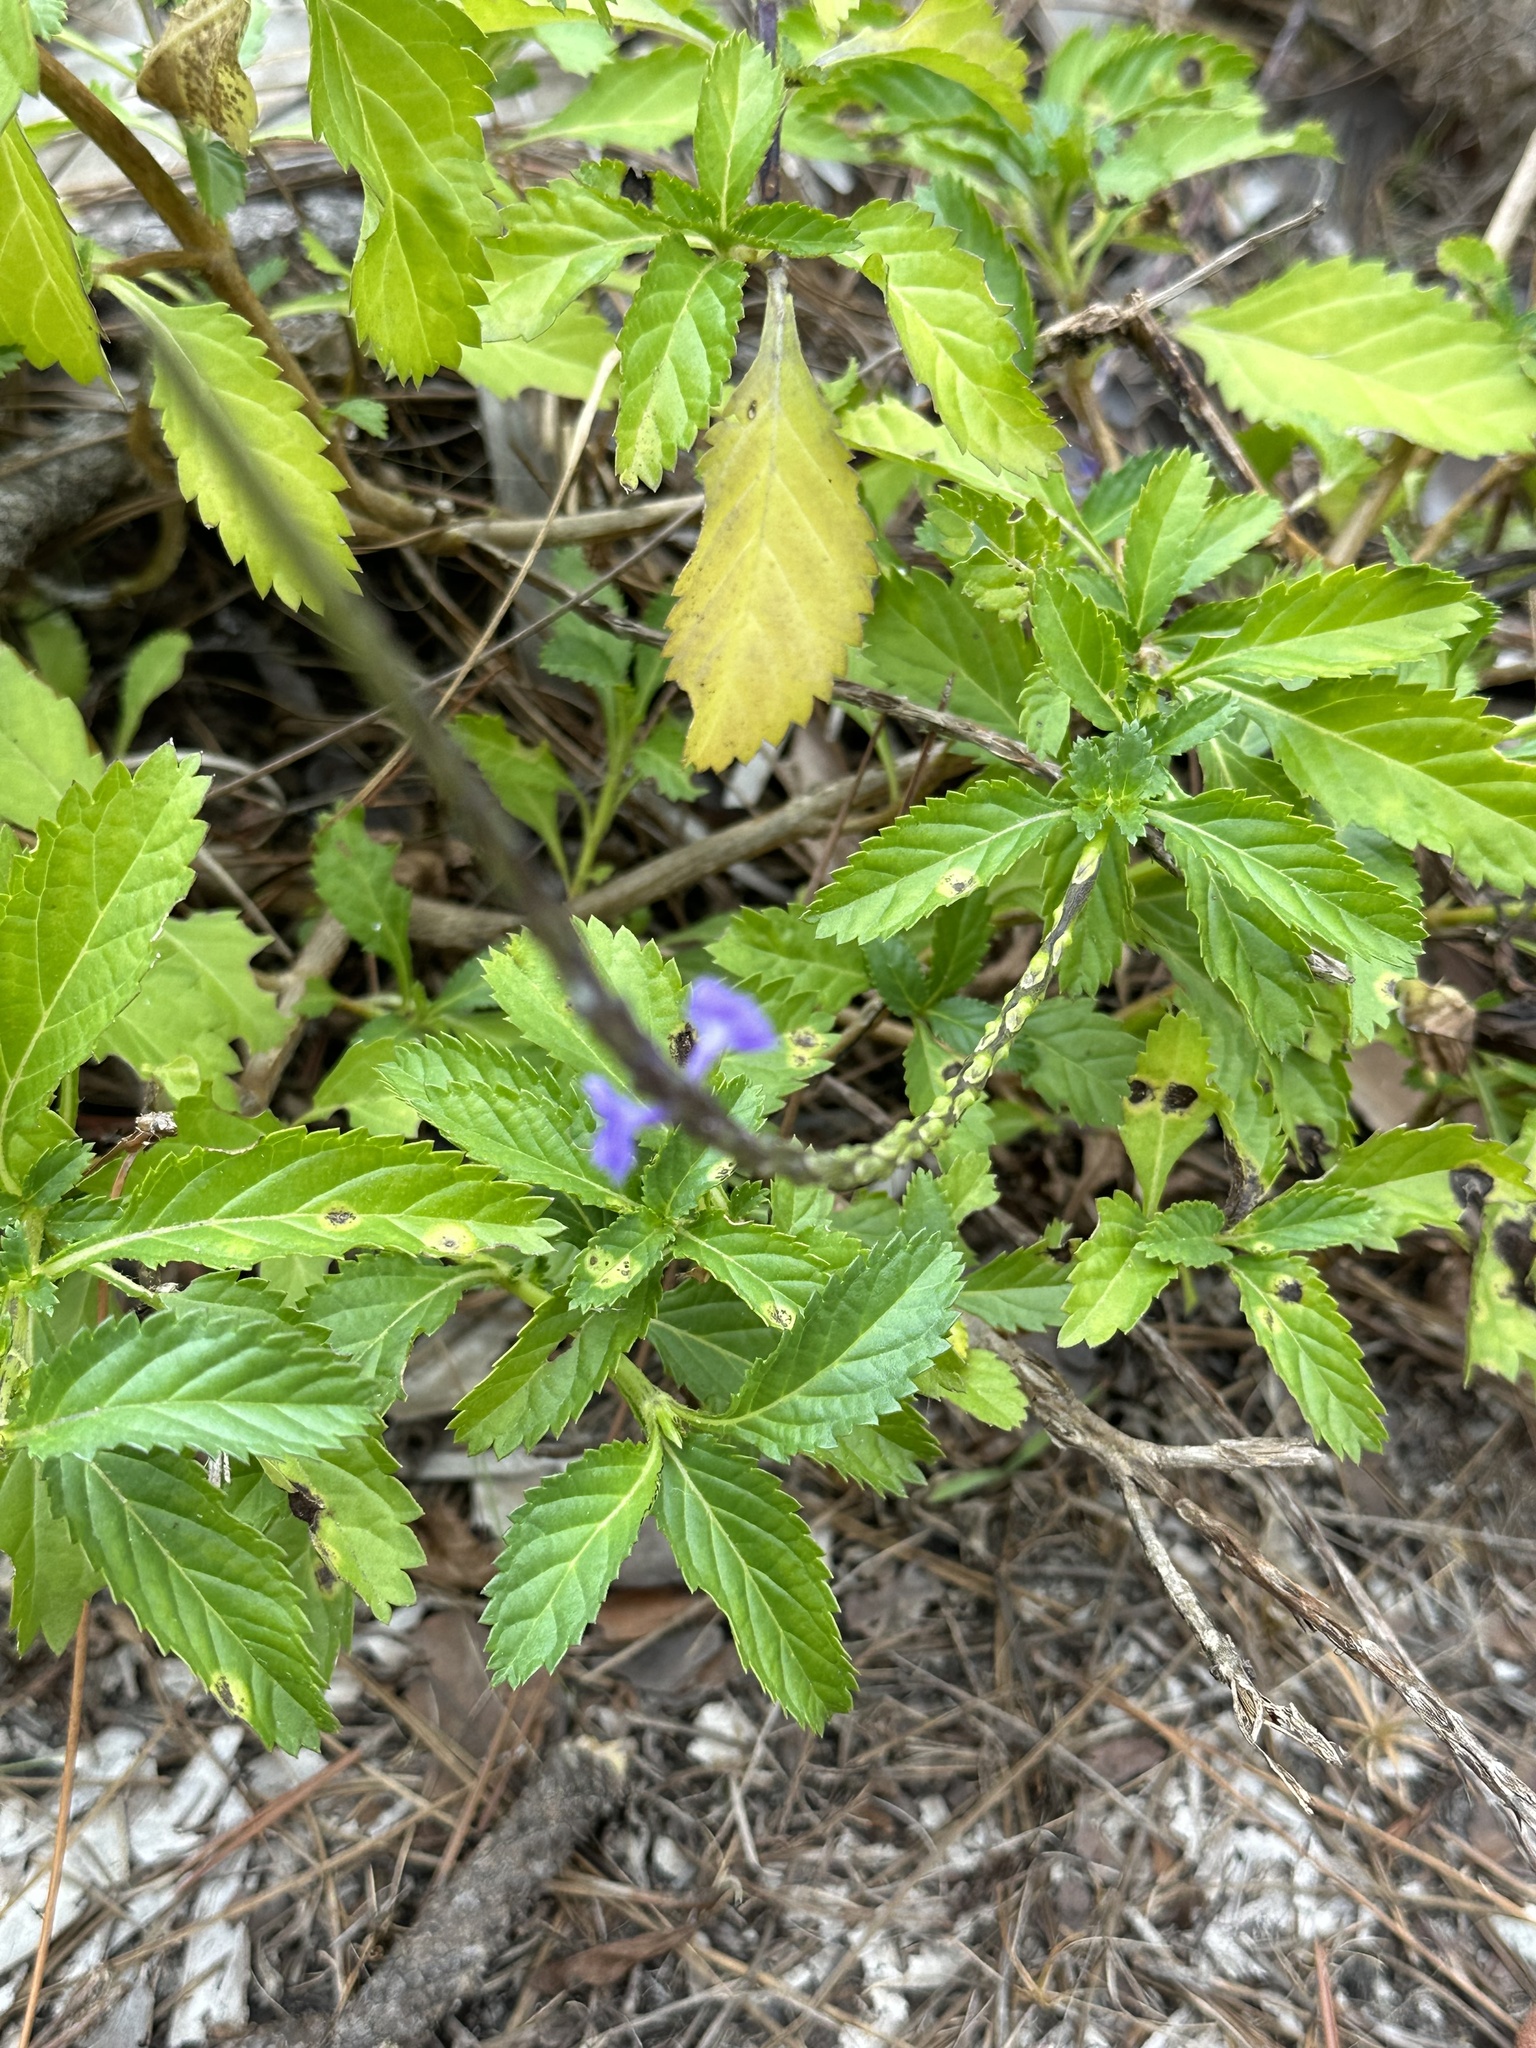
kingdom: Plantae
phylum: Tracheophyta
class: Magnoliopsida
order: Lamiales
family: Verbenaceae
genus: Stachytarpheta
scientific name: Stachytarpheta jamaicensis
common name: Light-blue snakeweed
